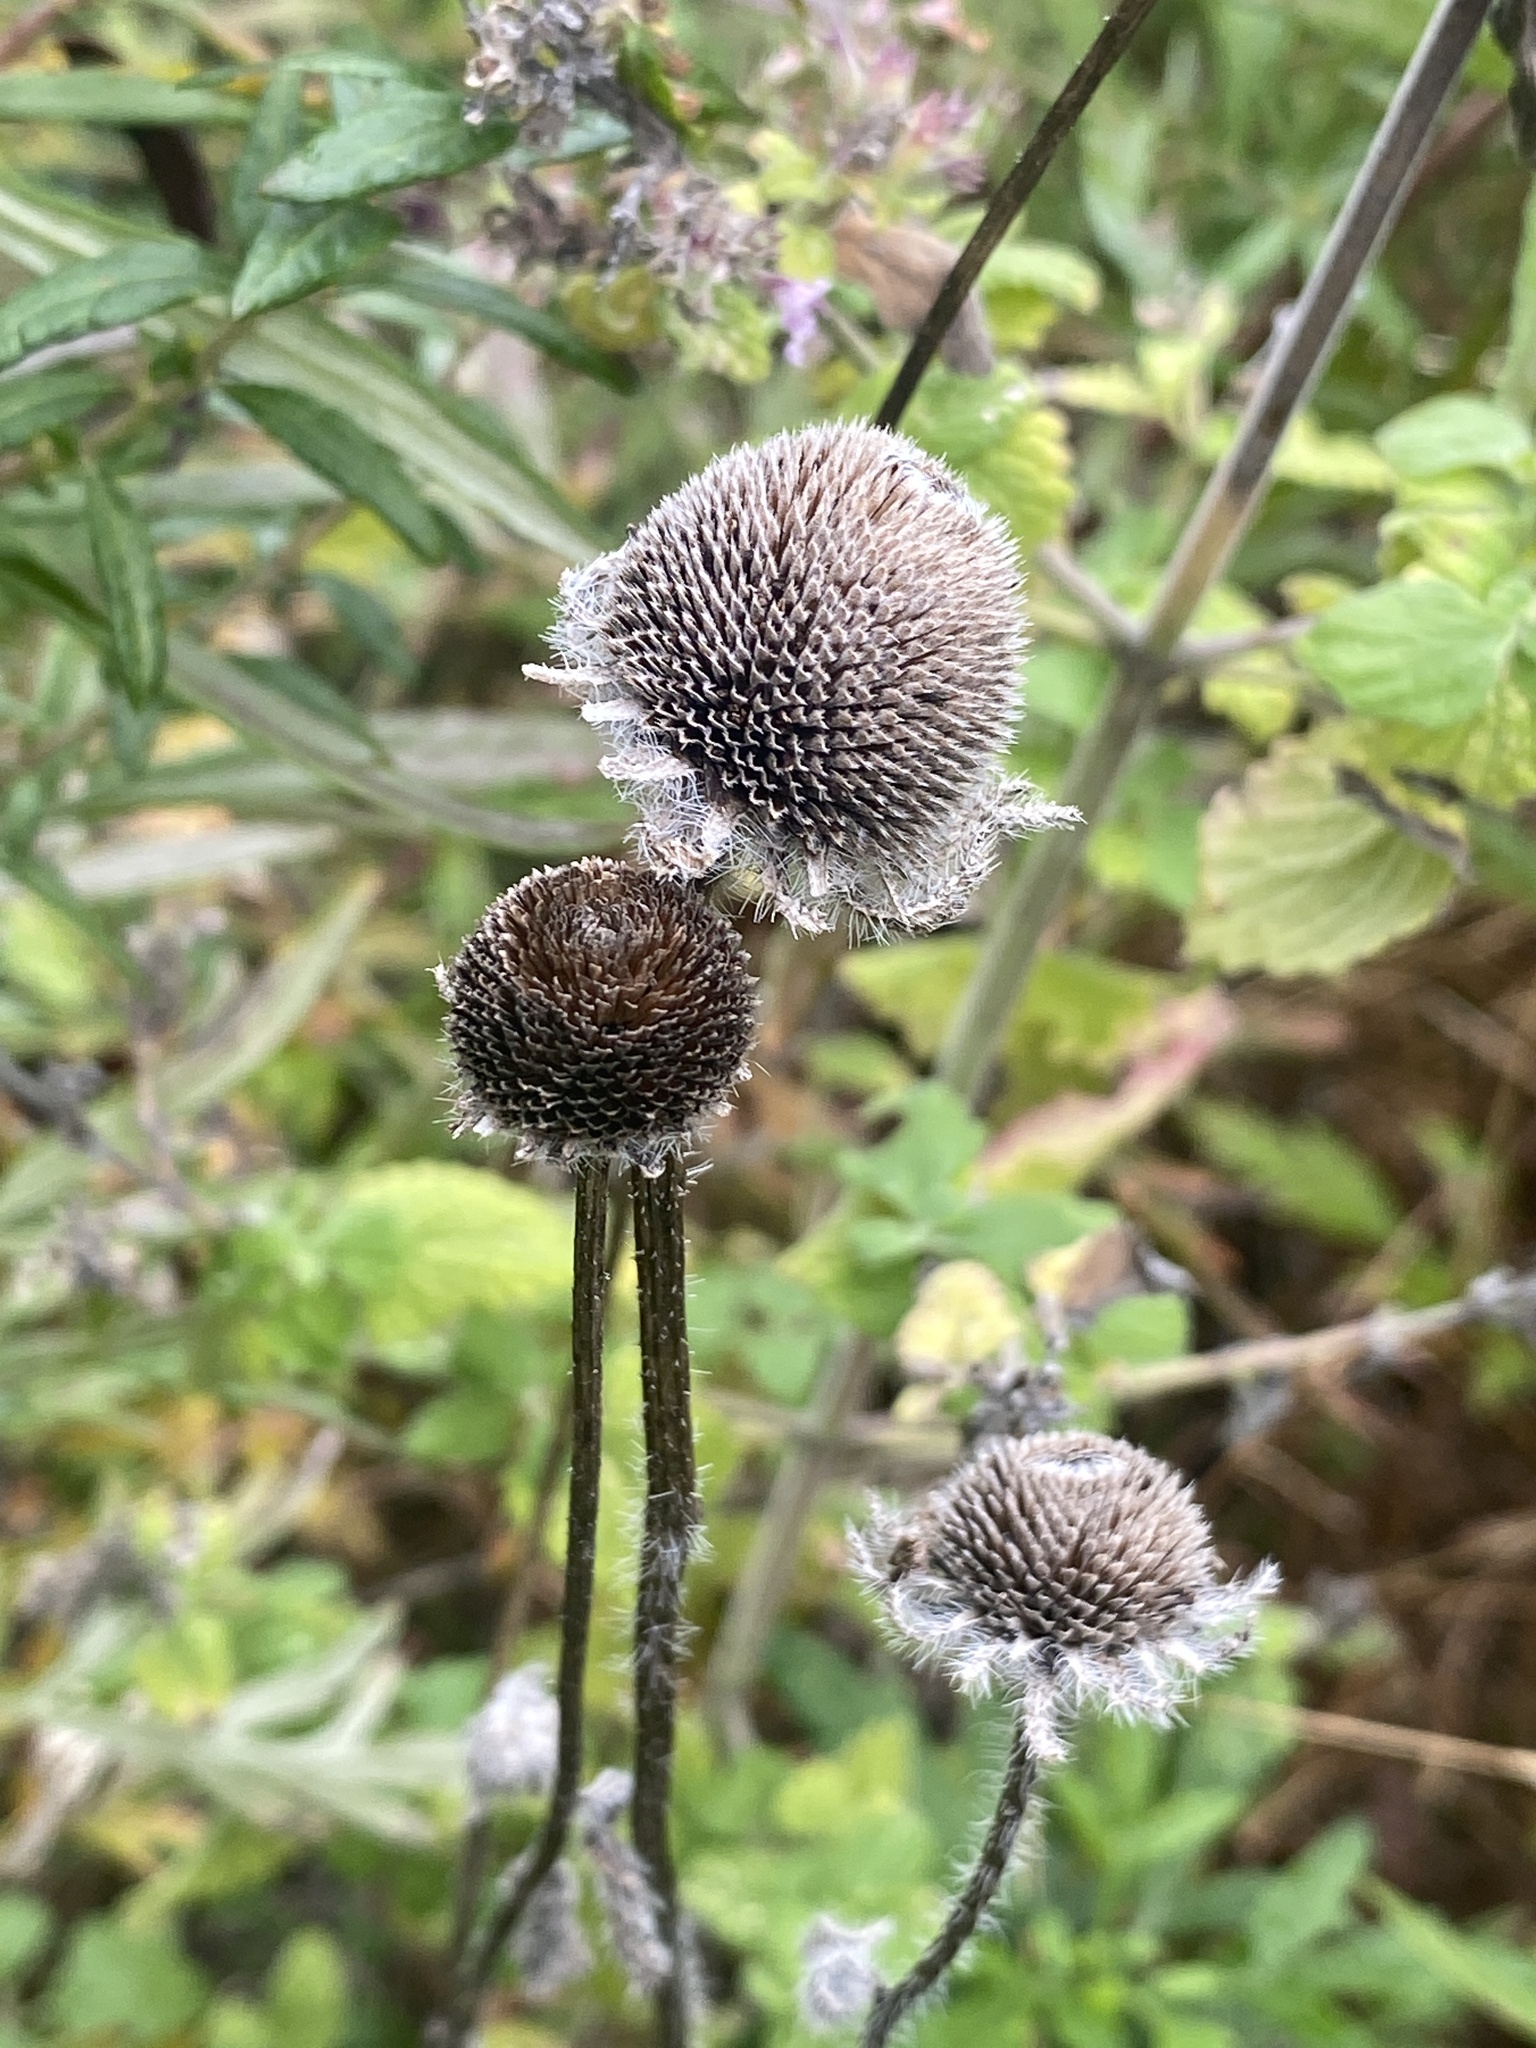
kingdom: Plantae
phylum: Tracheophyta
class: Magnoliopsida
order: Asterales
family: Asteraceae
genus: Rudbeckia
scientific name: Rudbeckia hirta
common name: Black-eyed-susan
